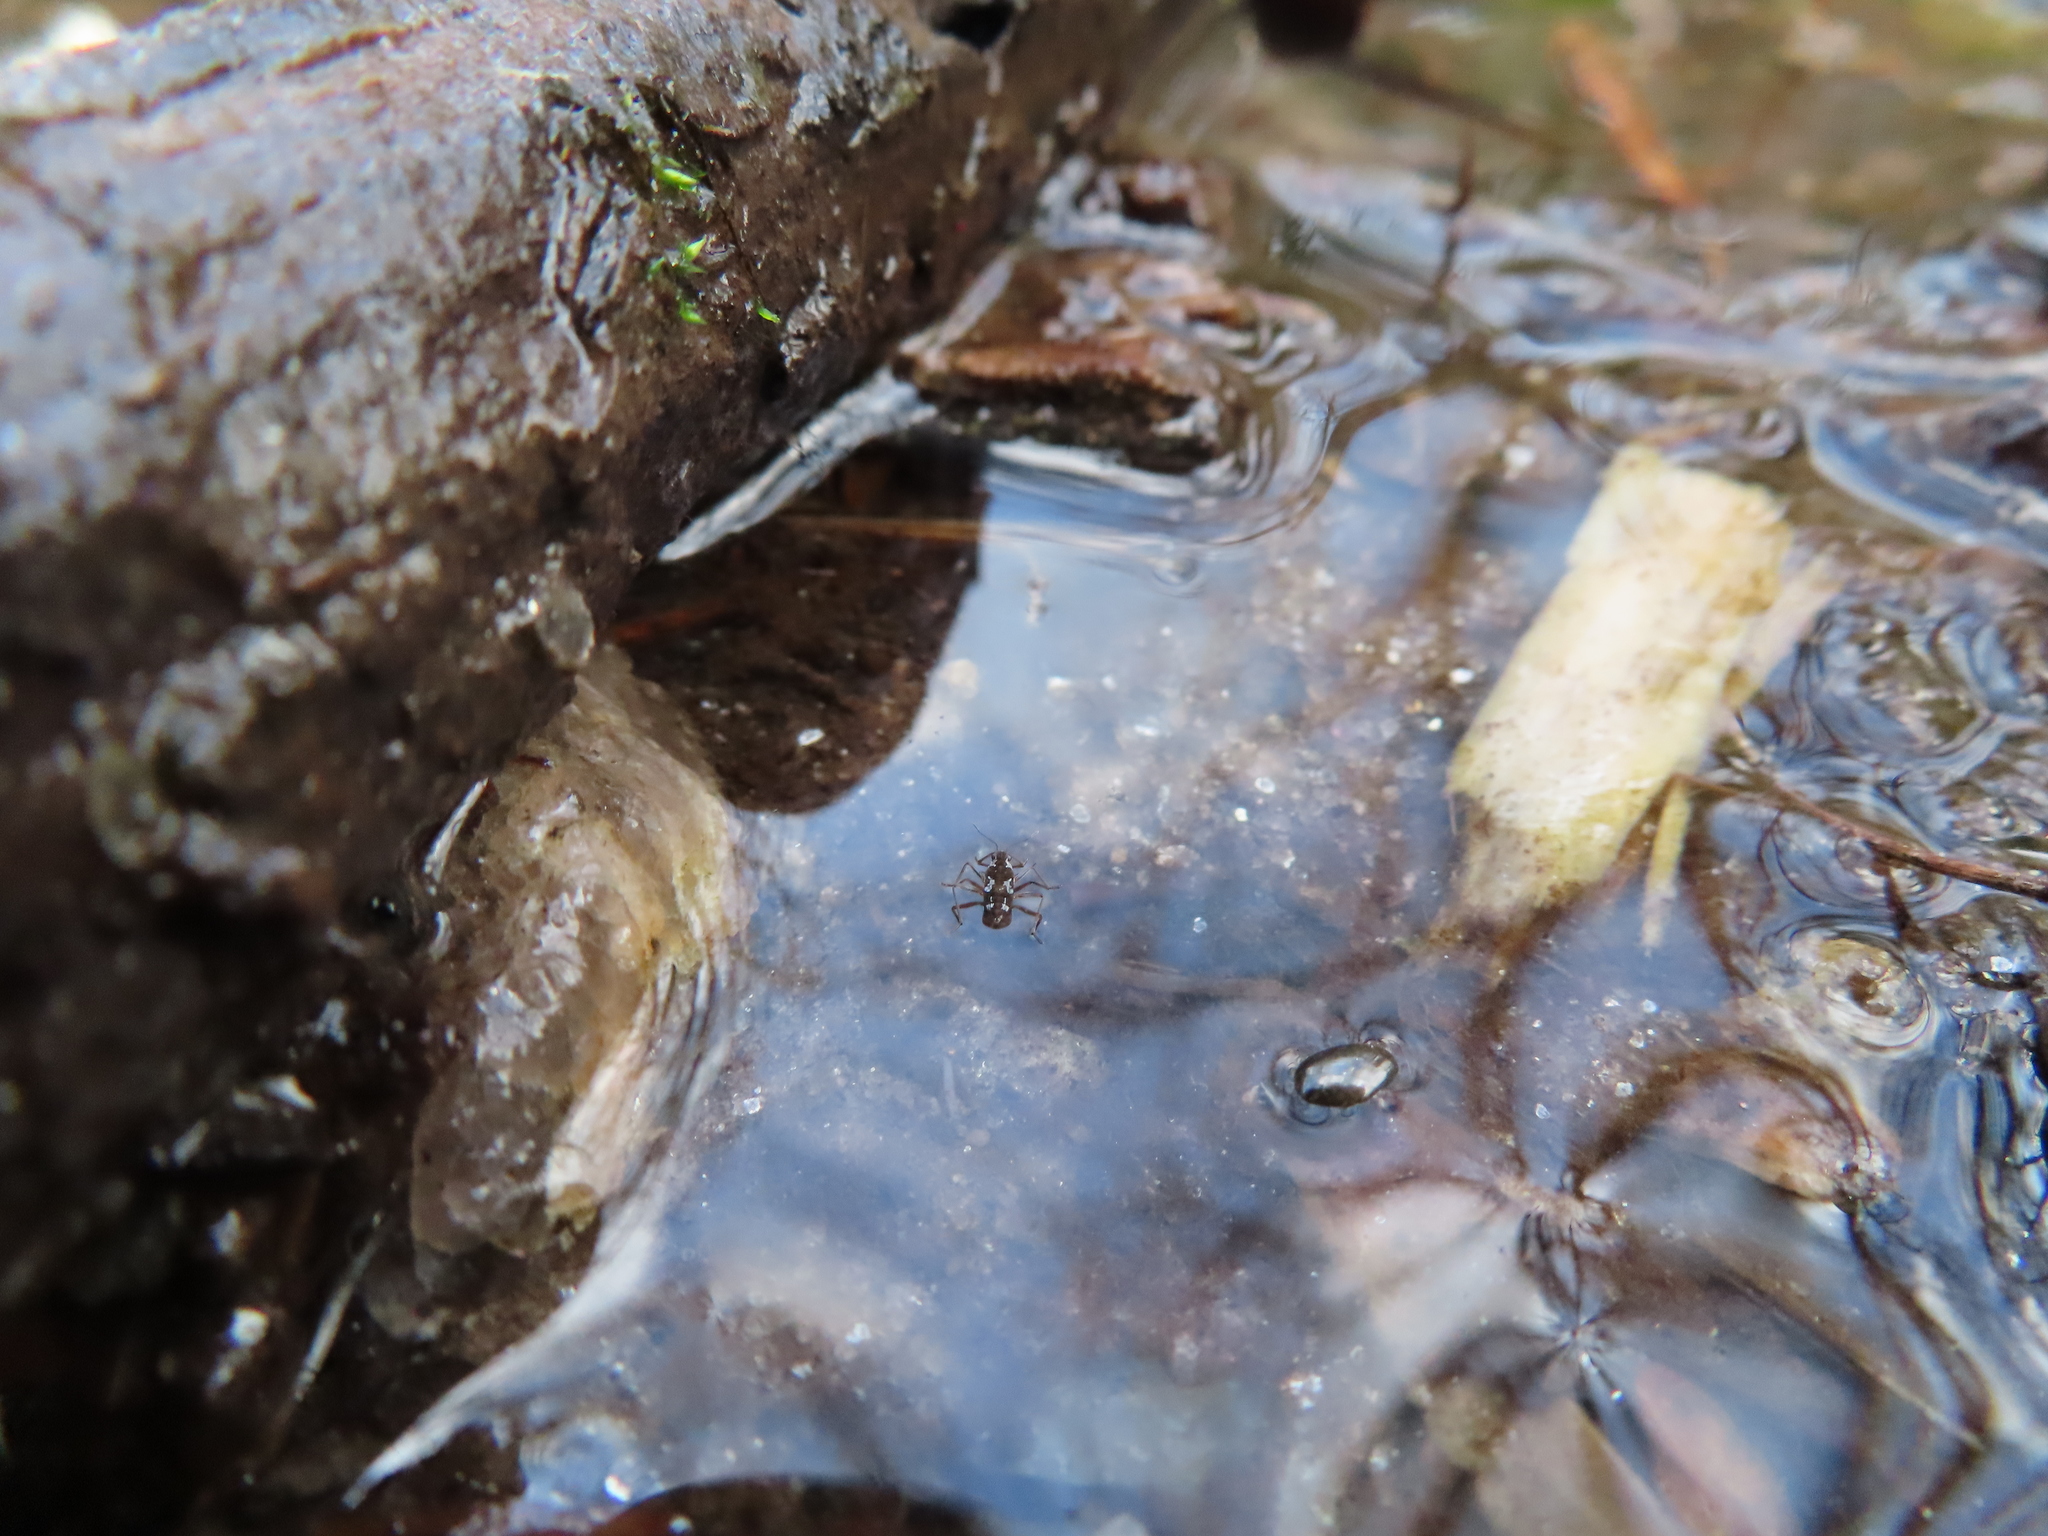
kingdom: Animalia
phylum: Arthropoda
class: Insecta
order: Hemiptera
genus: Kirkaldya
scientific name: Kirkaldya
